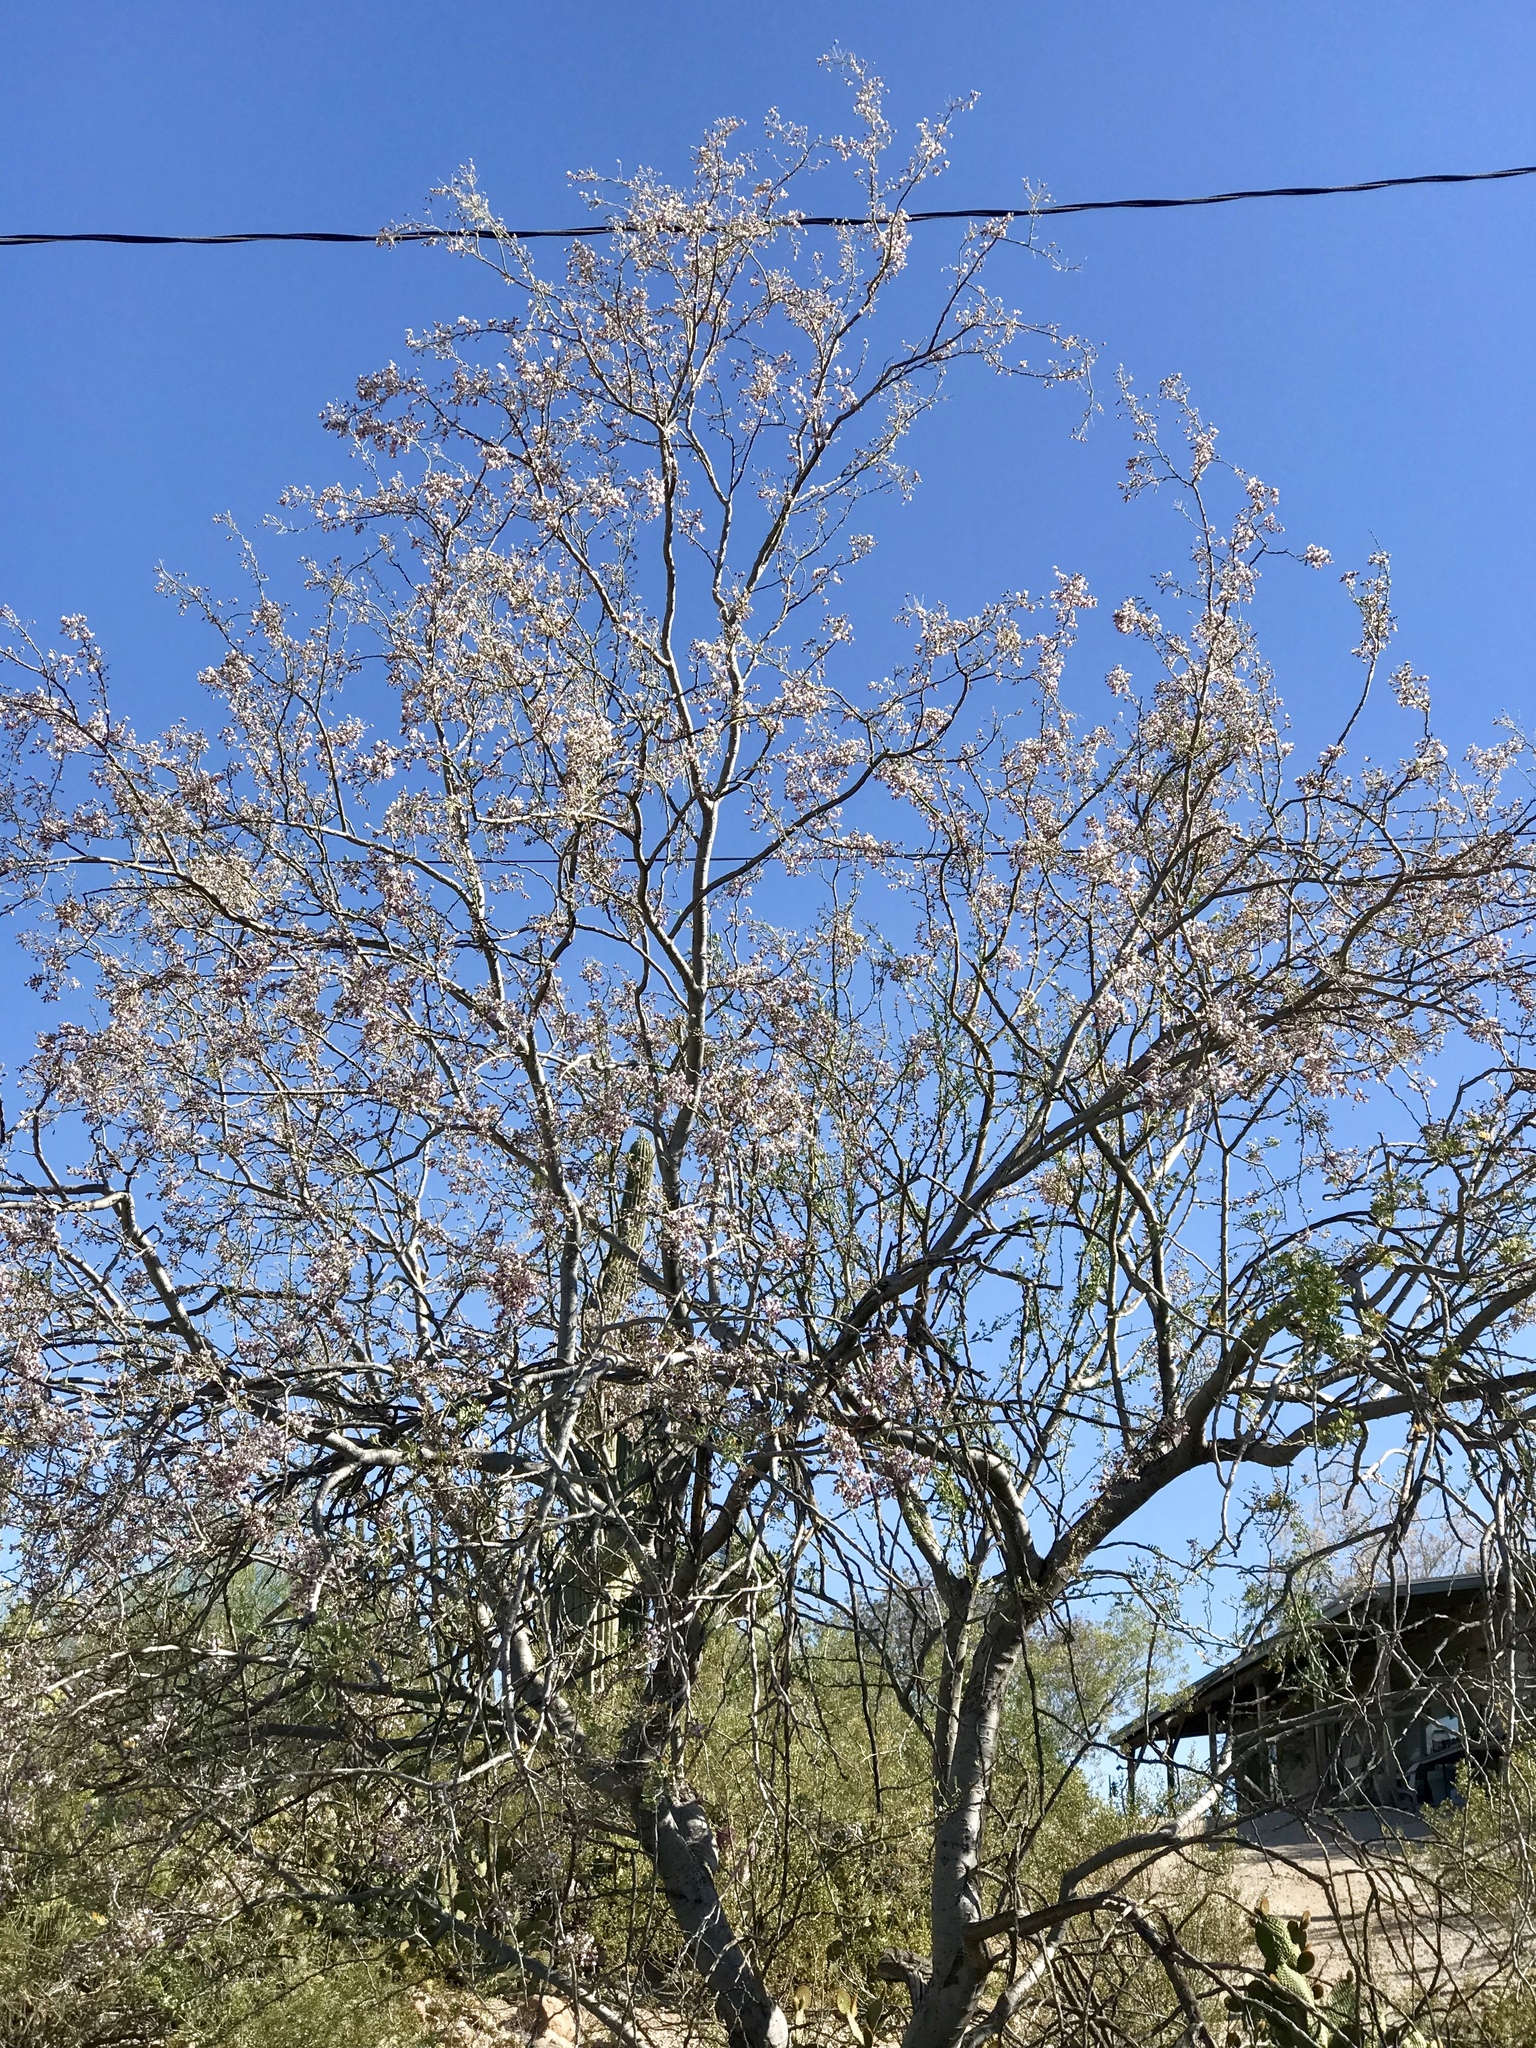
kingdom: Plantae
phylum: Tracheophyta
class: Magnoliopsida
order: Fabales
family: Fabaceae
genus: Olneya
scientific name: Olneya tesota
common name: Desert ironwood
